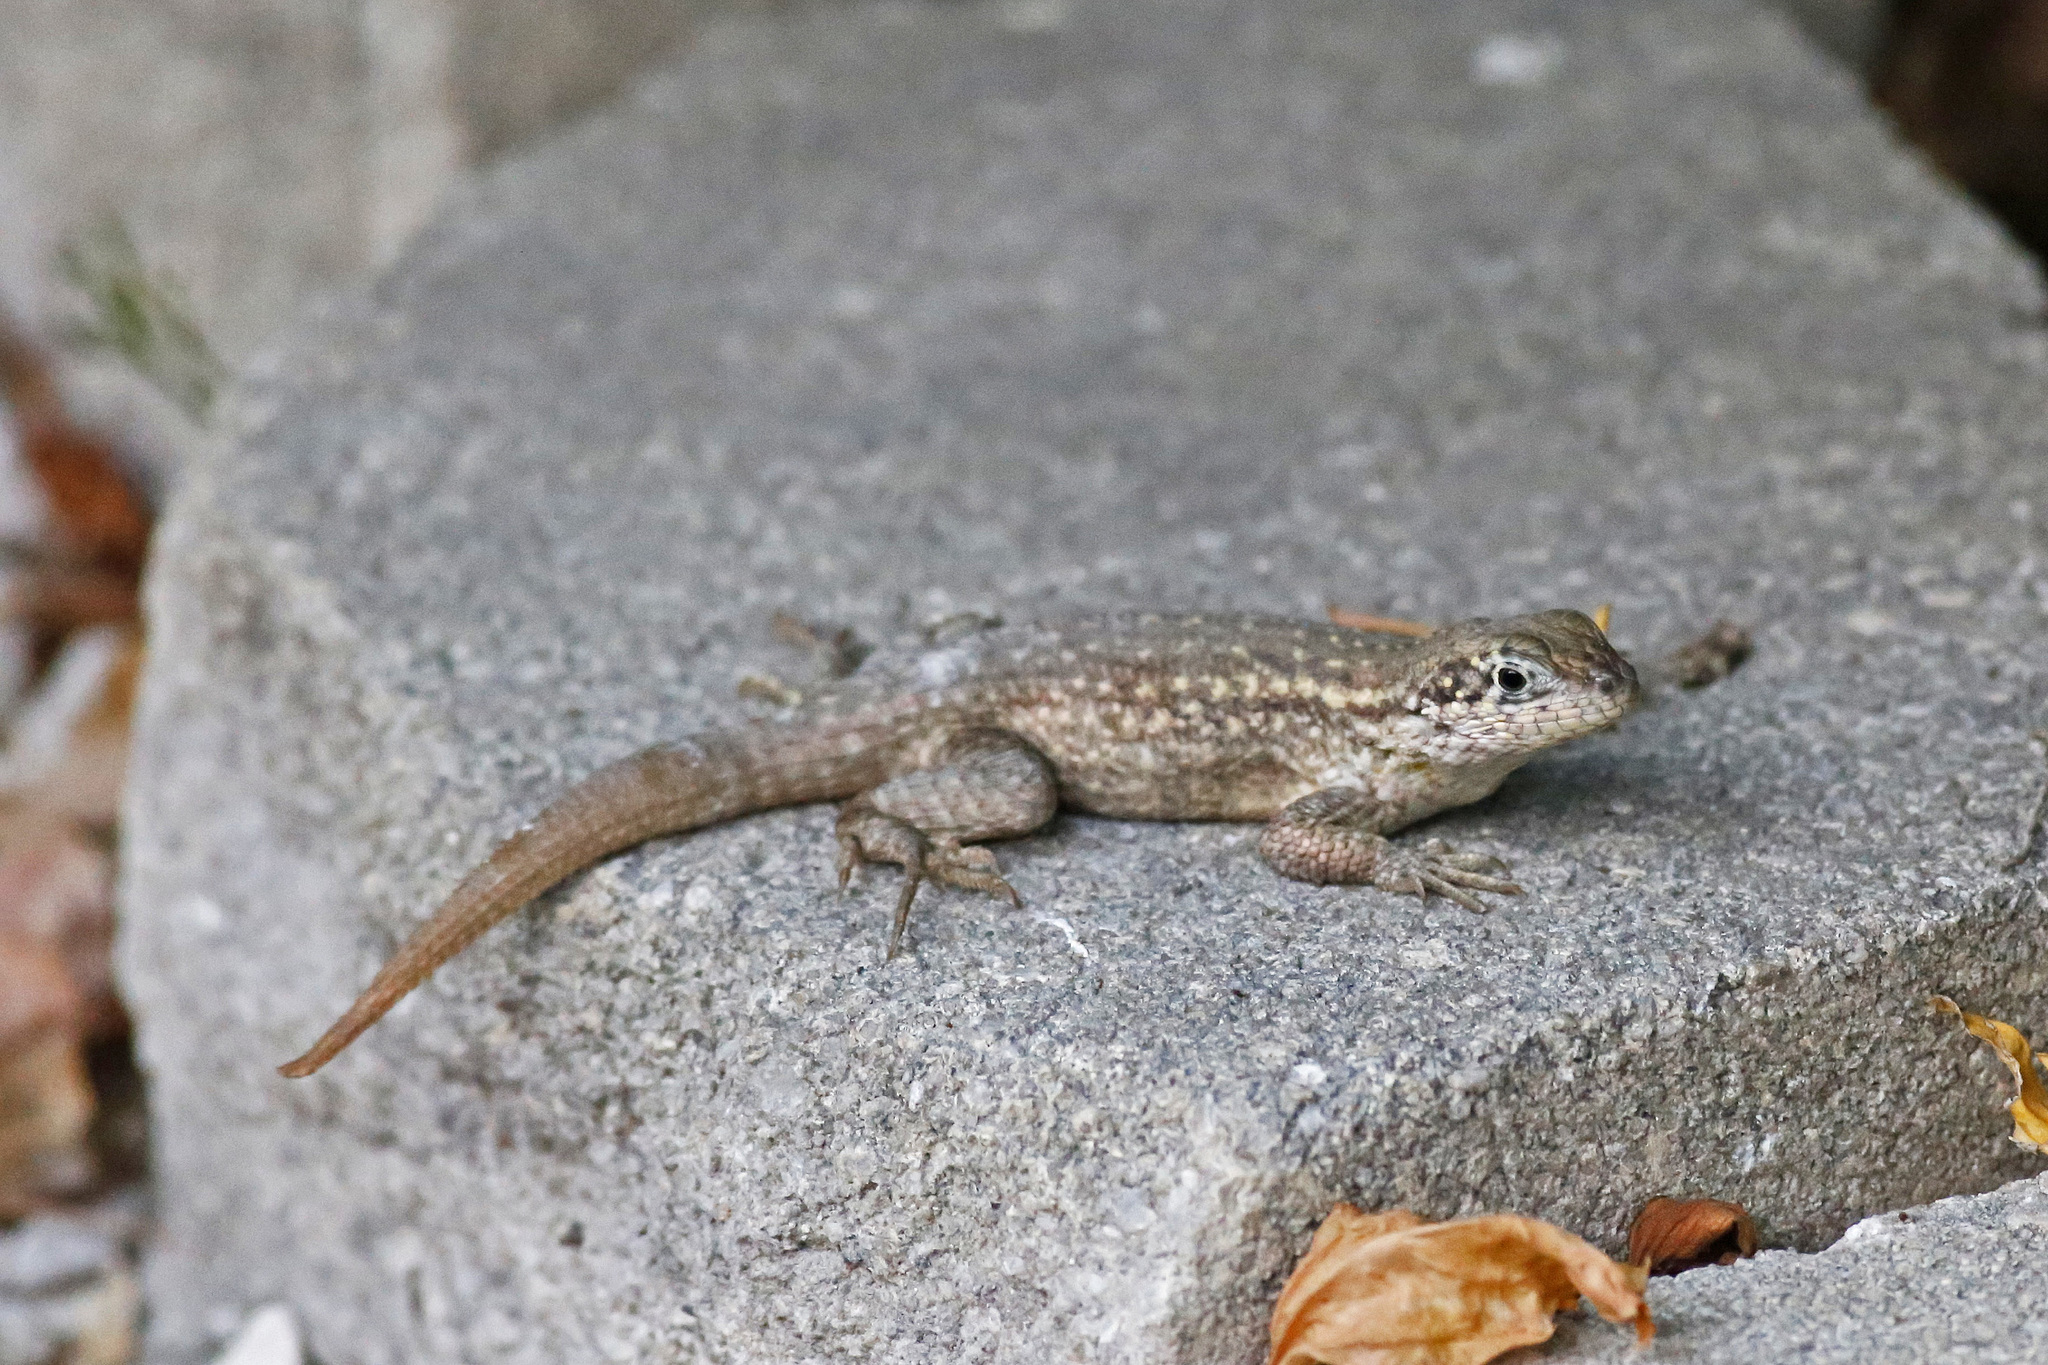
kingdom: Animalia
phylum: Chordata
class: Squamata
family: Leiocephalidae
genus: Leiocephalus
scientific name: Leiocephalus carinatus
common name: Northern curly-tailed lizard
